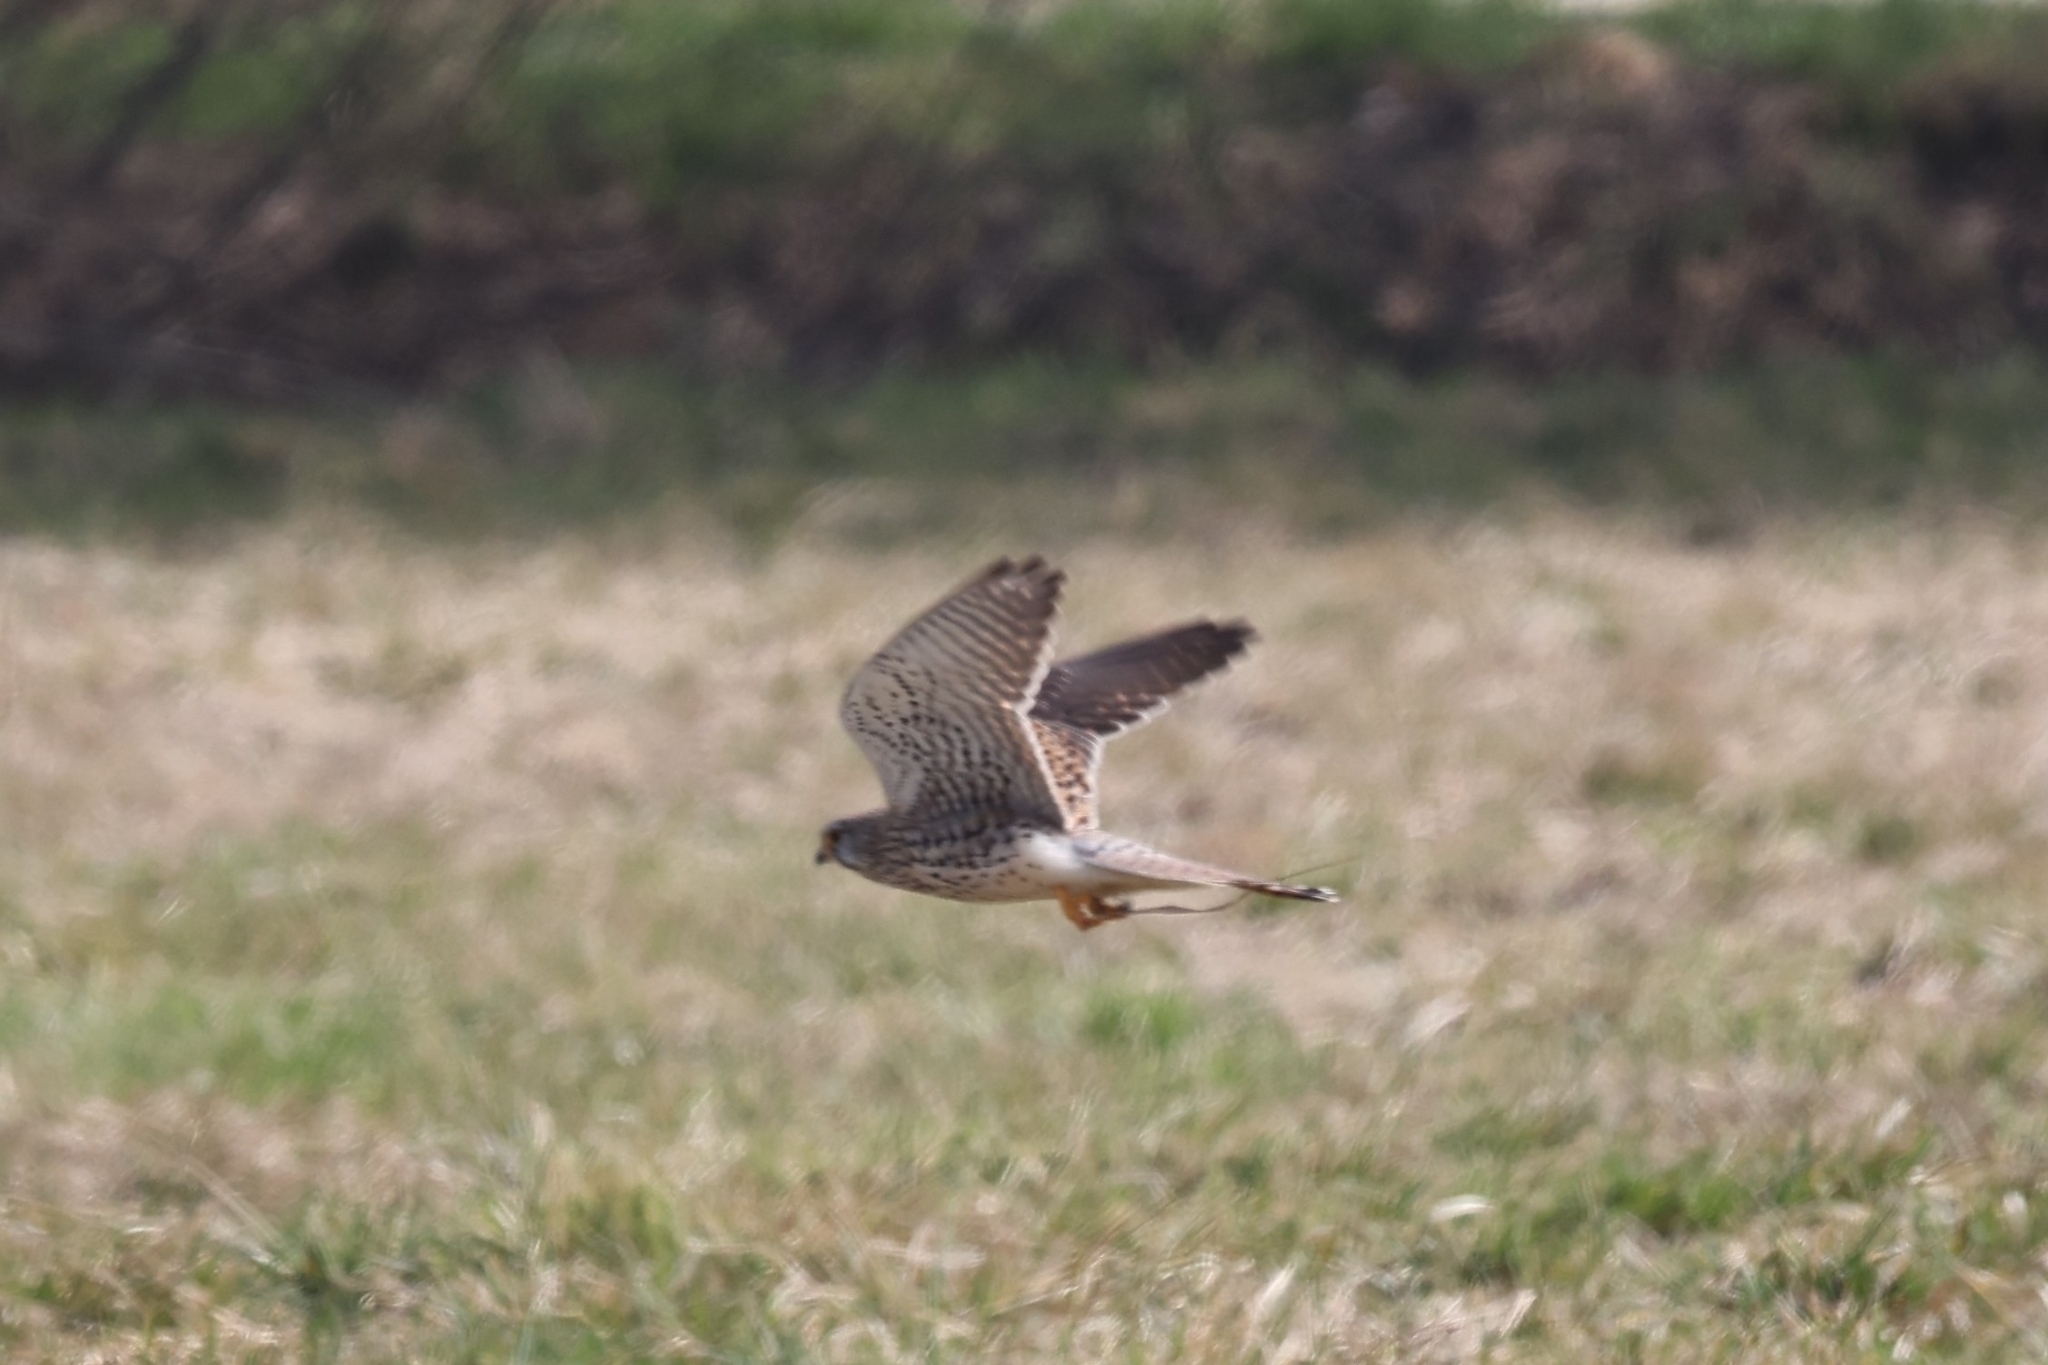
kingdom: Animalia
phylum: Chordata
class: Aves
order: Falconiformes
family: Falconidae
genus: Falco
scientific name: Falco tinnunculus
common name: Common kestrel
